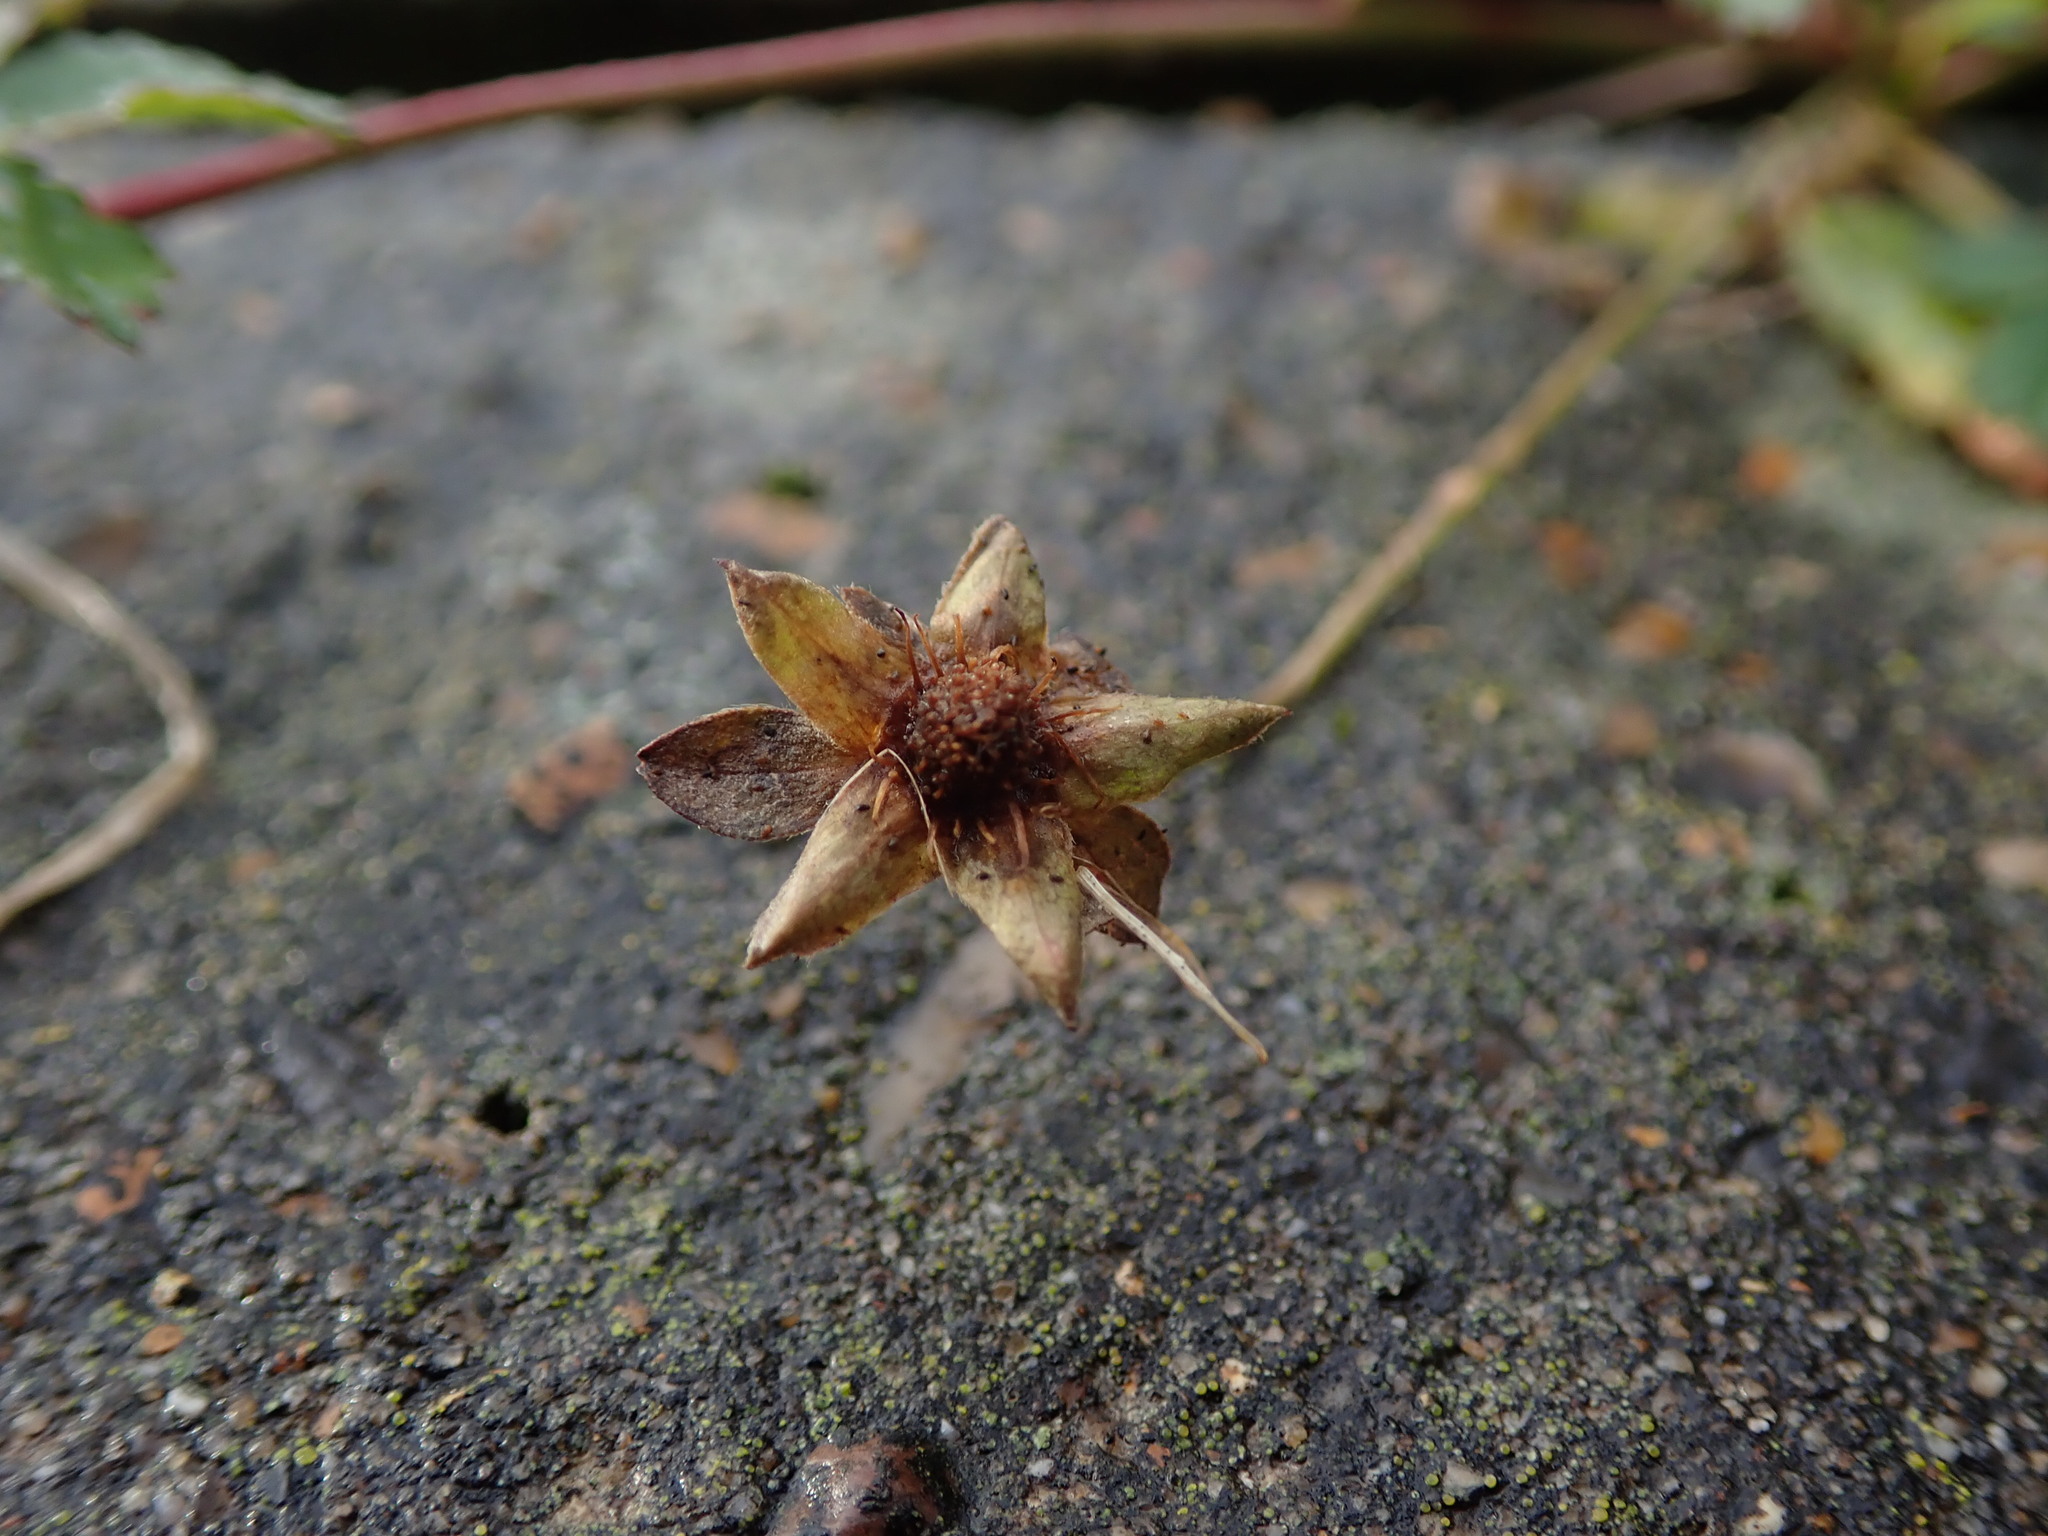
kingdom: Plantae
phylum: Tracheophyta
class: Magnoliopsida
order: Rosales
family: Rosaceae
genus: Potentilla
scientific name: Potentilla reptans
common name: Creeping cinquefoil
